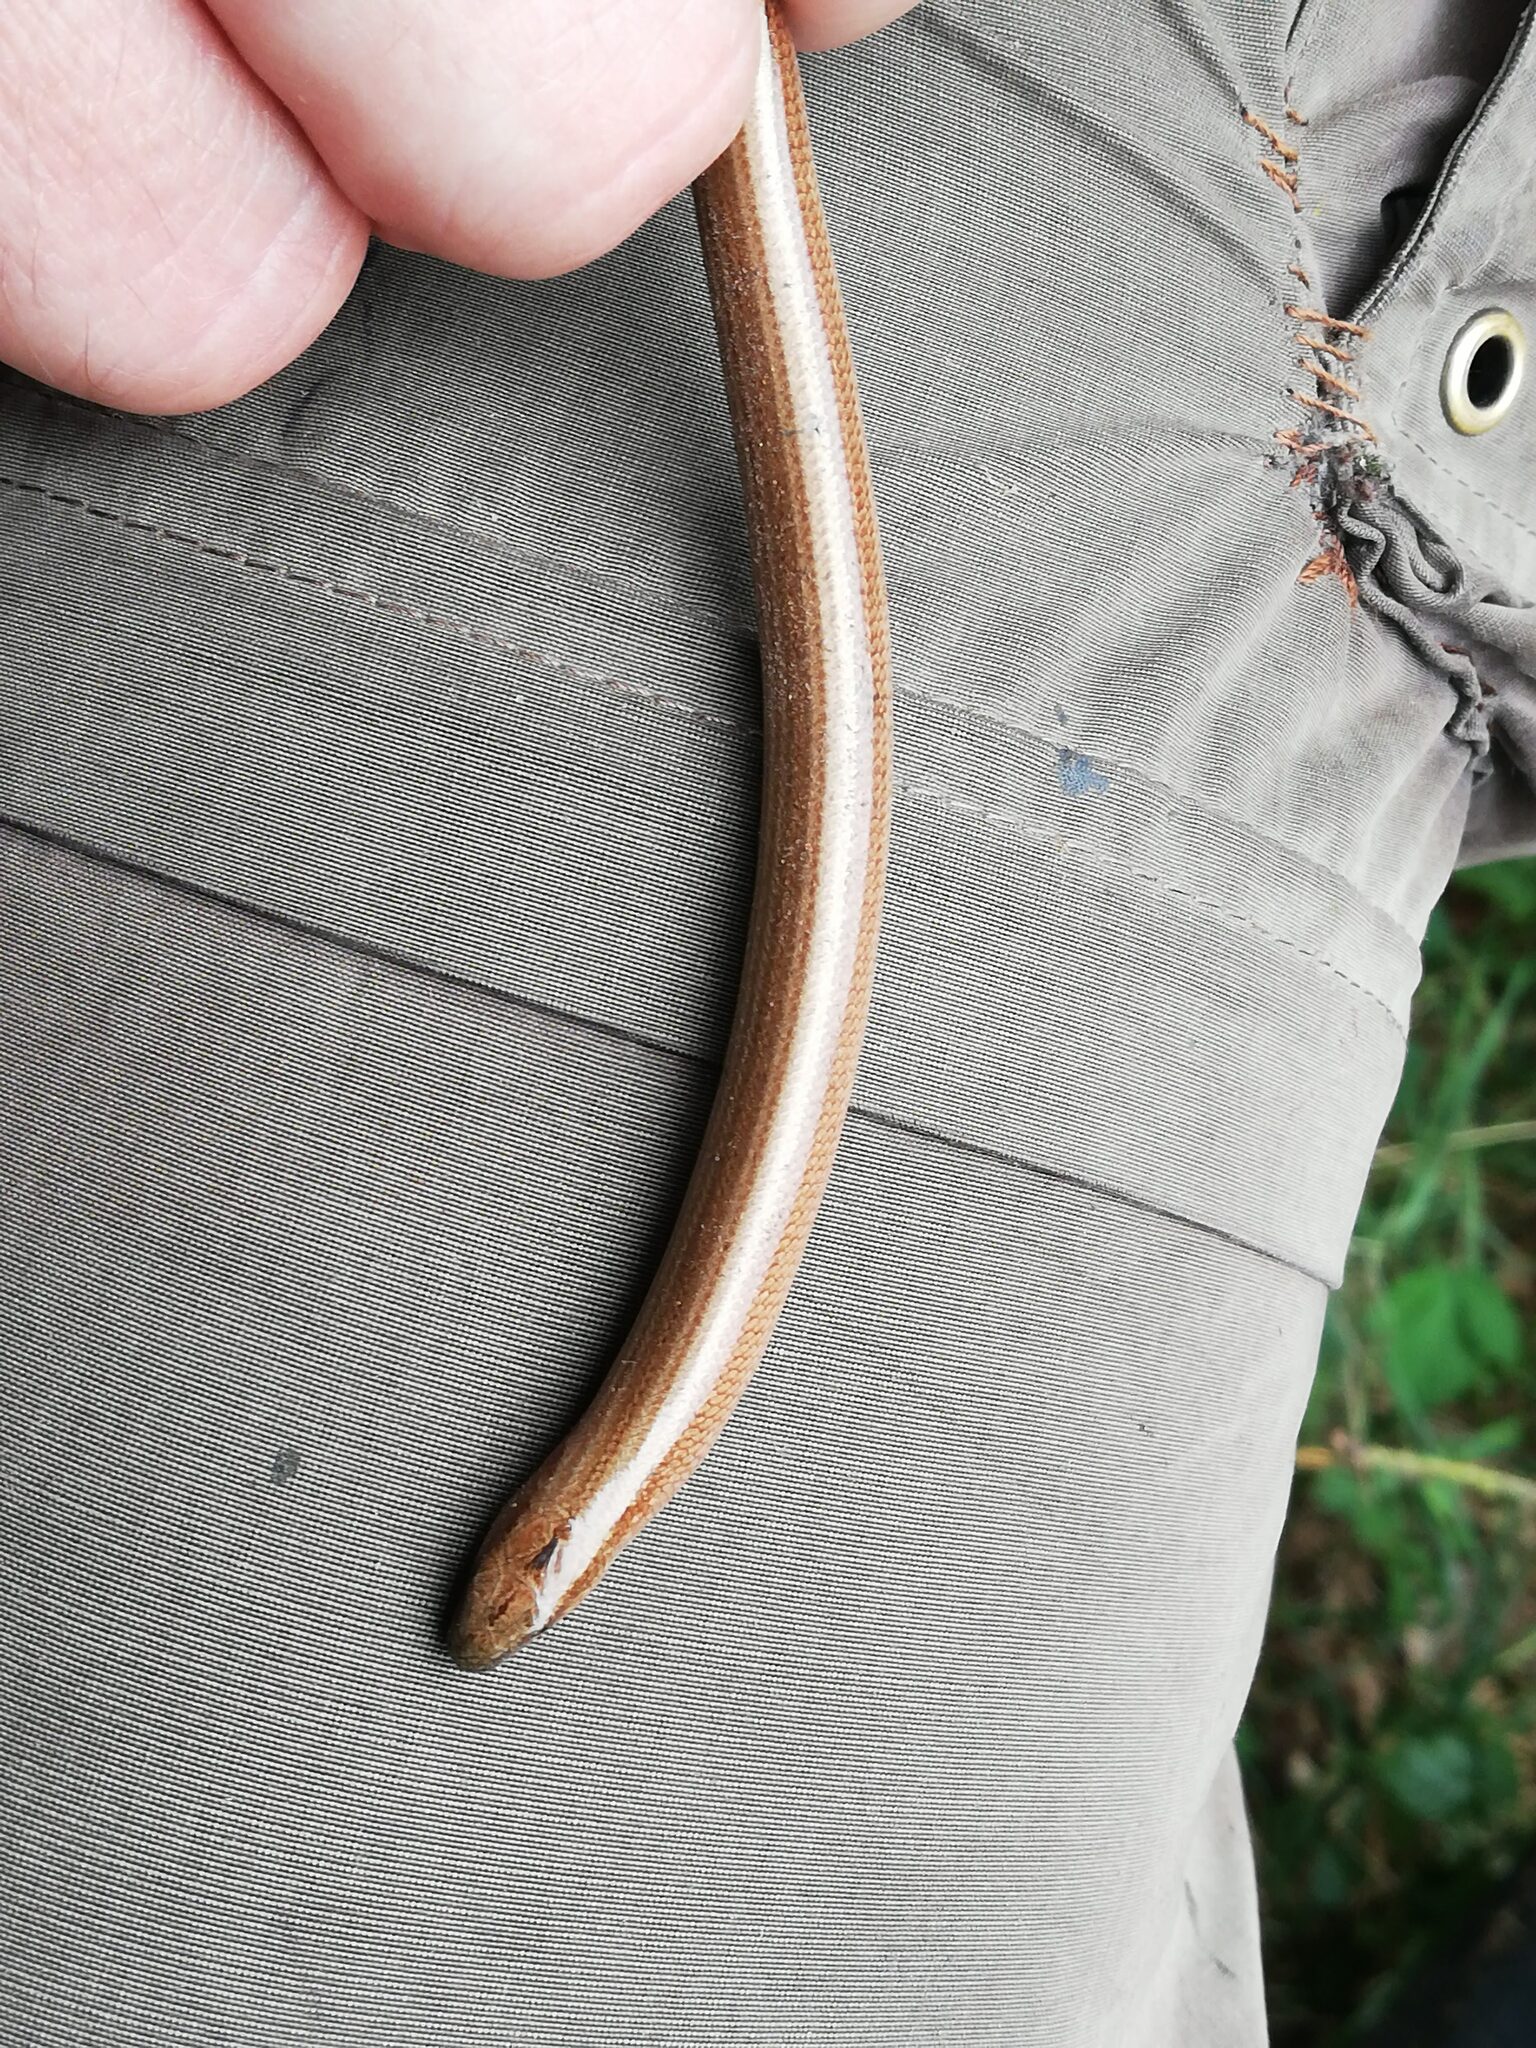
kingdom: Animalia
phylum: Chordata
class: Squamata
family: Anguidae
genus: Anguis
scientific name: Anguis fragilis
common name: Slow worm
